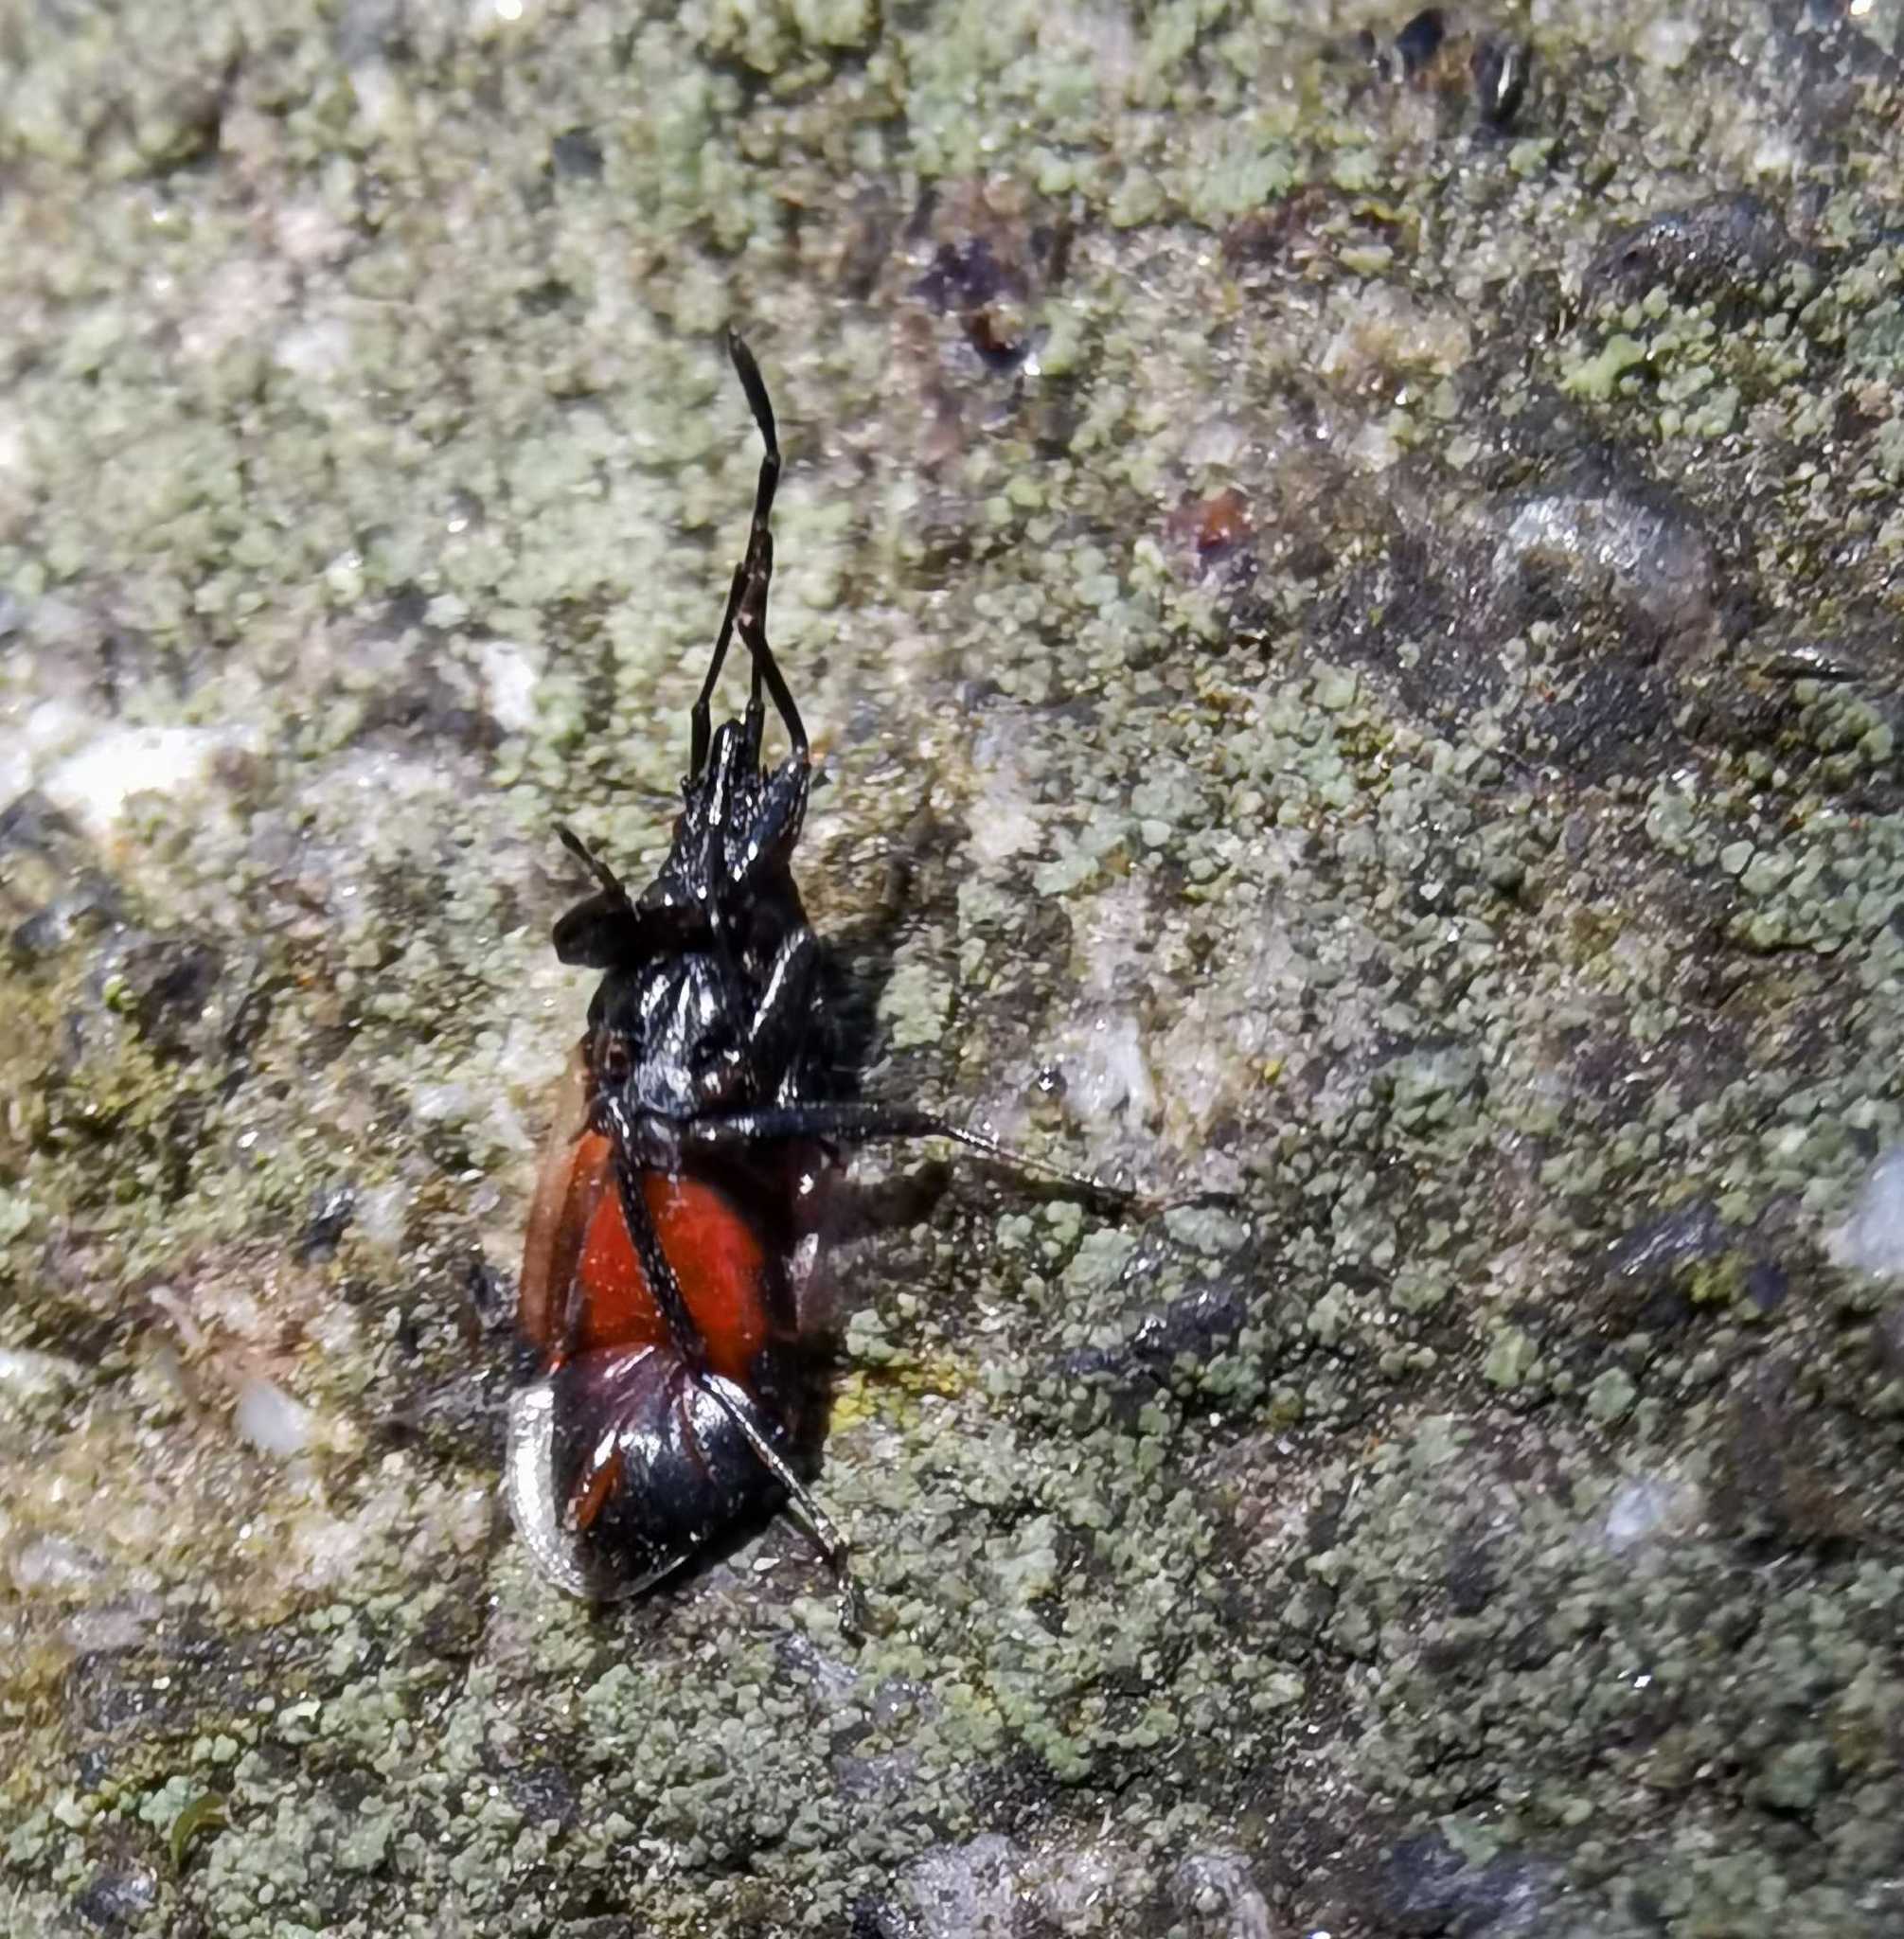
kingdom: Animalia
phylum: Arthropoda
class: Insecta
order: Hemiptera
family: Oxycarenidae
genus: Oxycarenus
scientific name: Oxycarenus lavaterae
